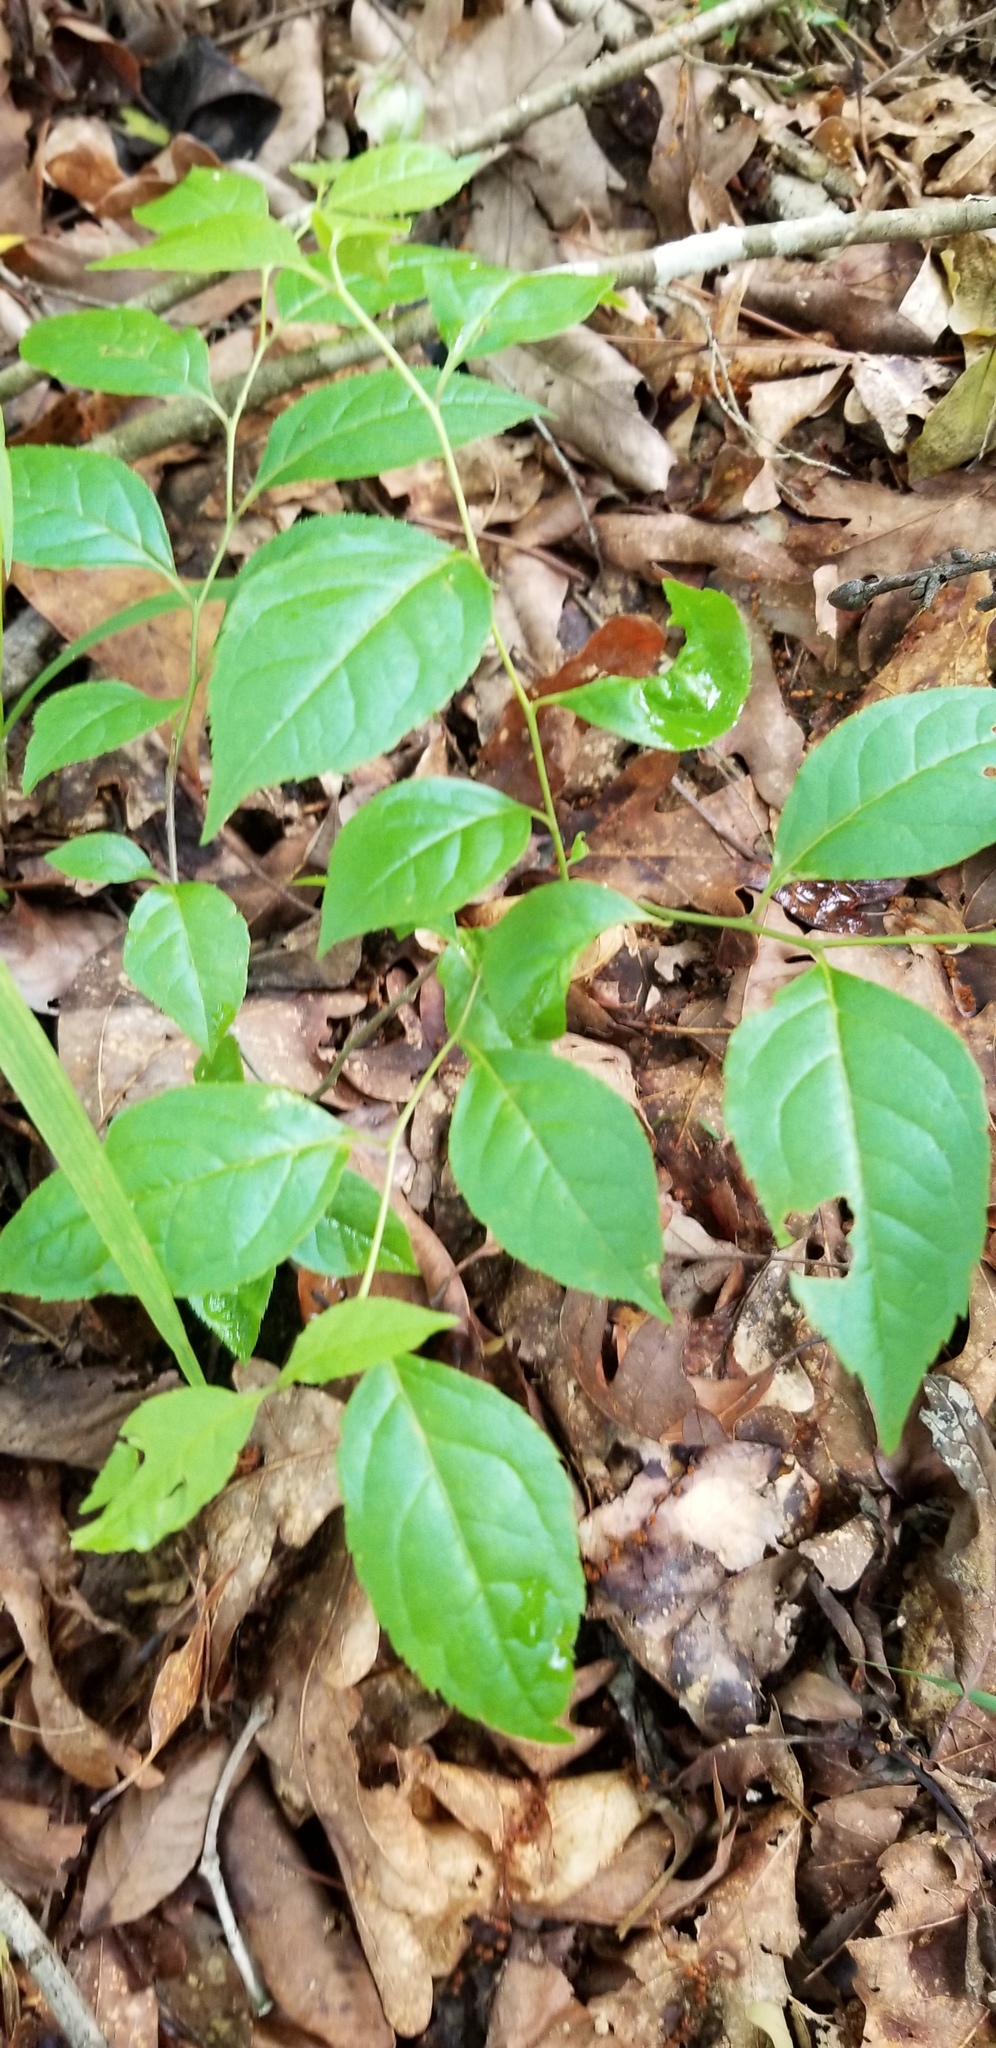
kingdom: Plantae
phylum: Tracheophyta
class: Magnoliopsida
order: Aquifoliales
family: Aquifoliaceae
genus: Ilex
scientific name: Ilex ambigua
